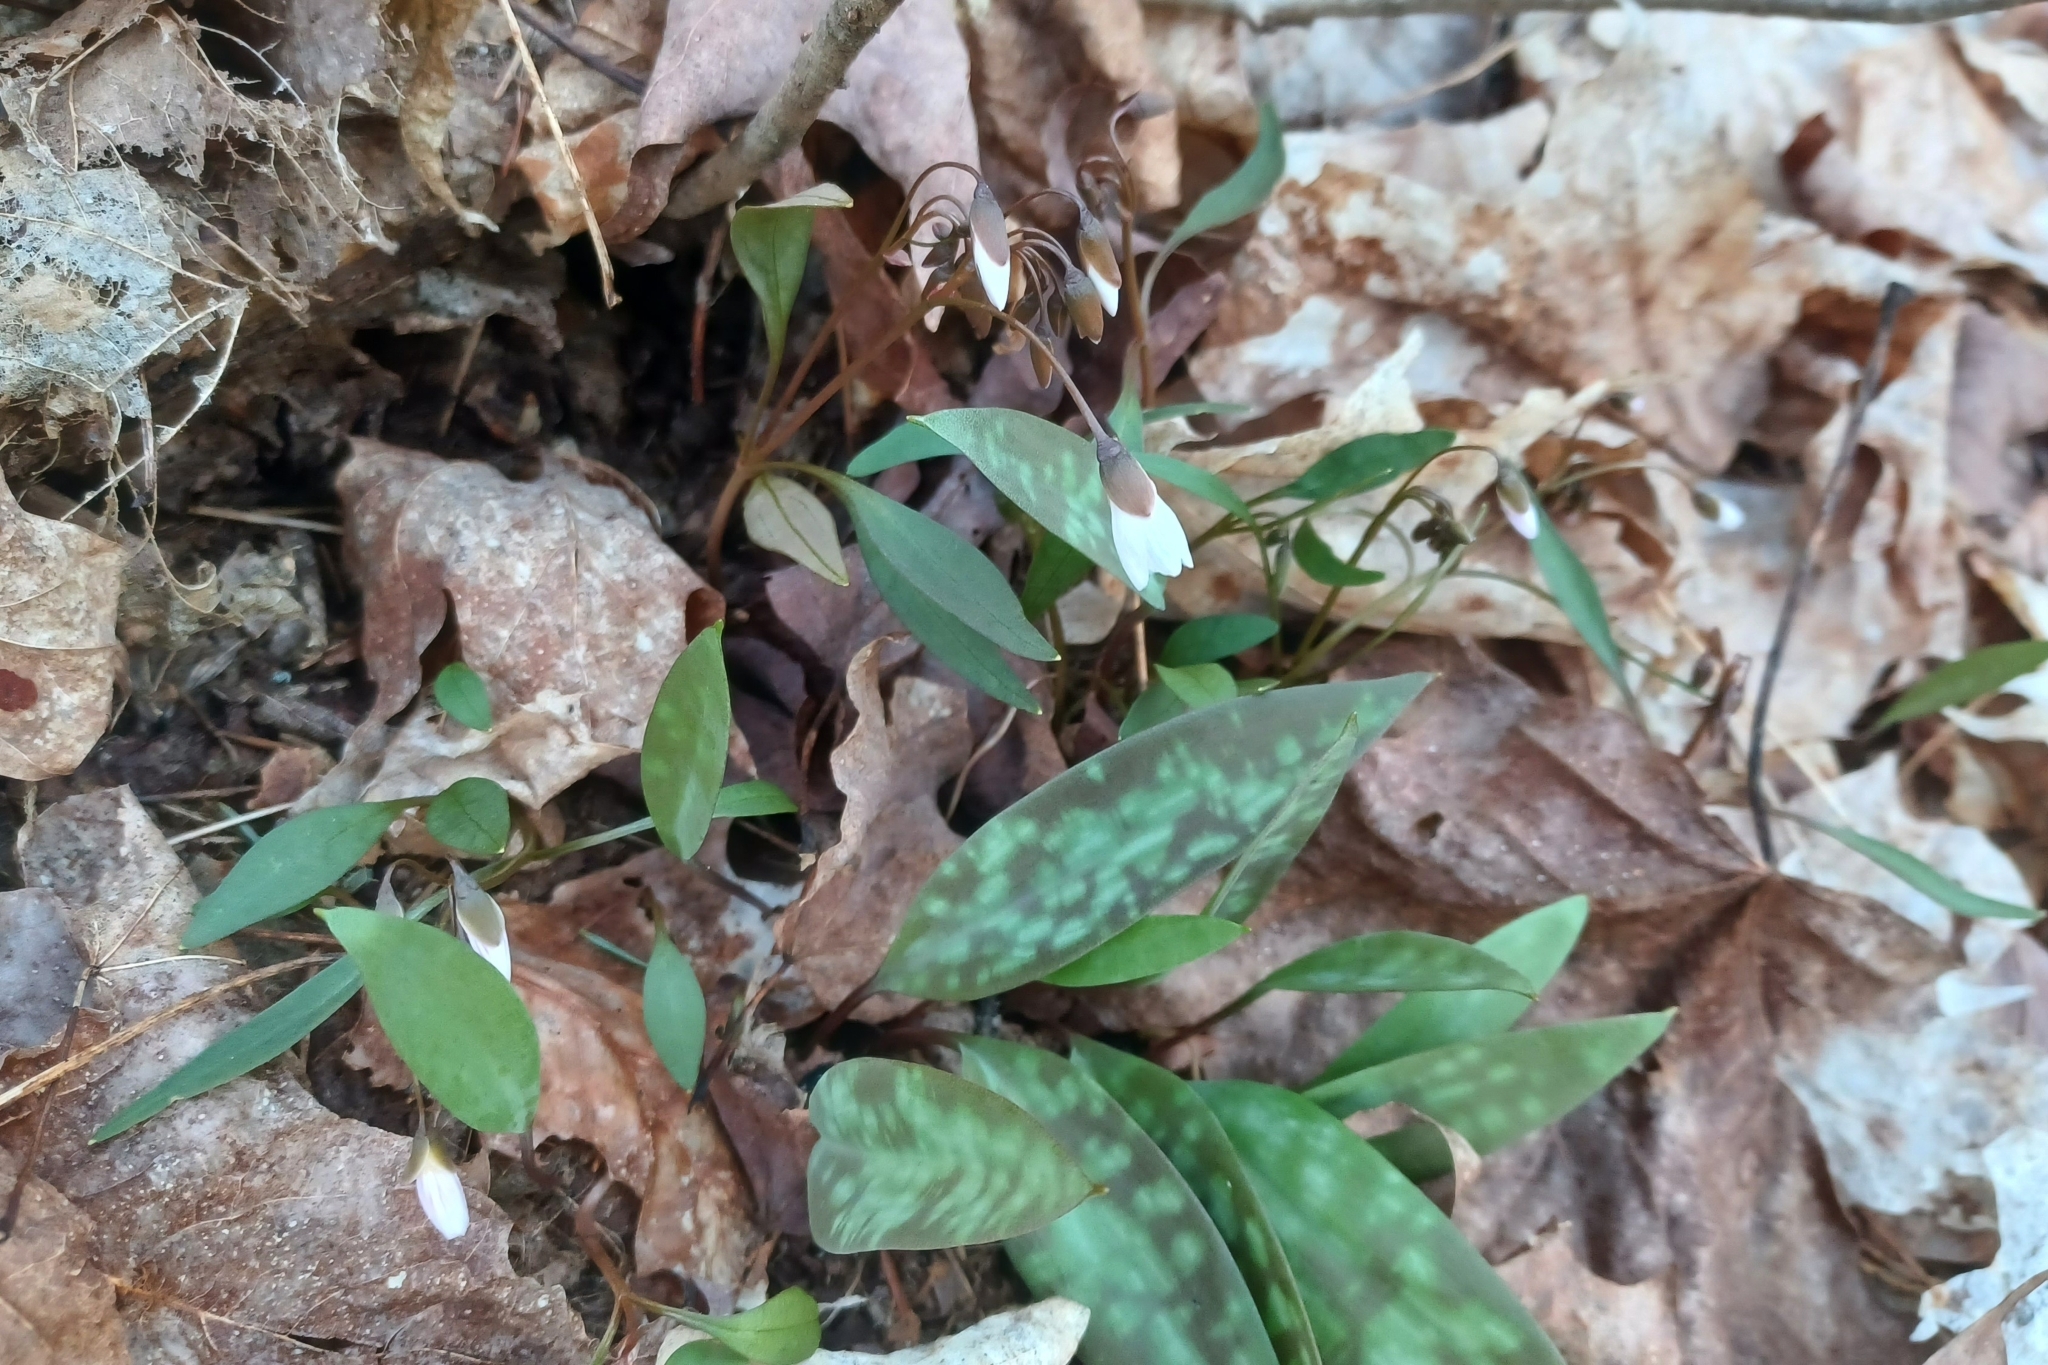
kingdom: Plantae
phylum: Tracheophyta
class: Magnoliopsida
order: Caryophyllales
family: Montiaceae
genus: Claytonia
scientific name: Claytonia caroliniana
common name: Carolina spring beauty
